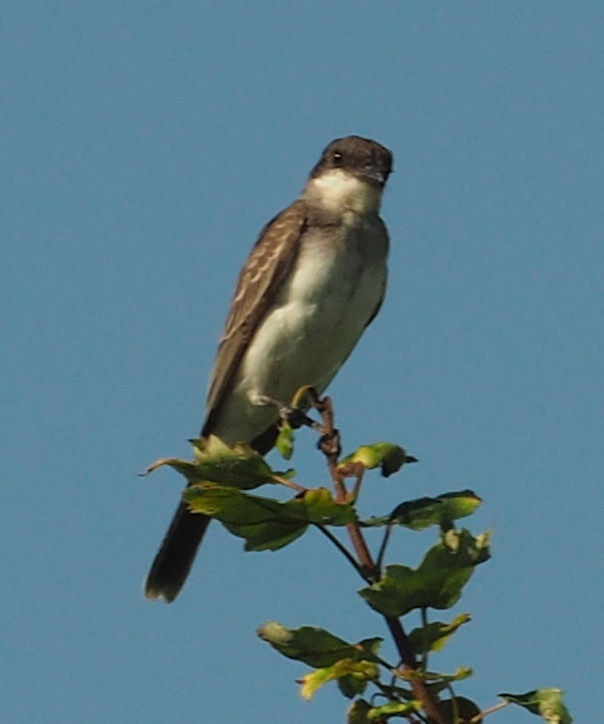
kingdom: Animalia
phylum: Chordata
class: Aves
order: Passeriformes
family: Tyrannidae
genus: Tyrannus
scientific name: Tyrannus tyrannus
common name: Eastern kingbird
